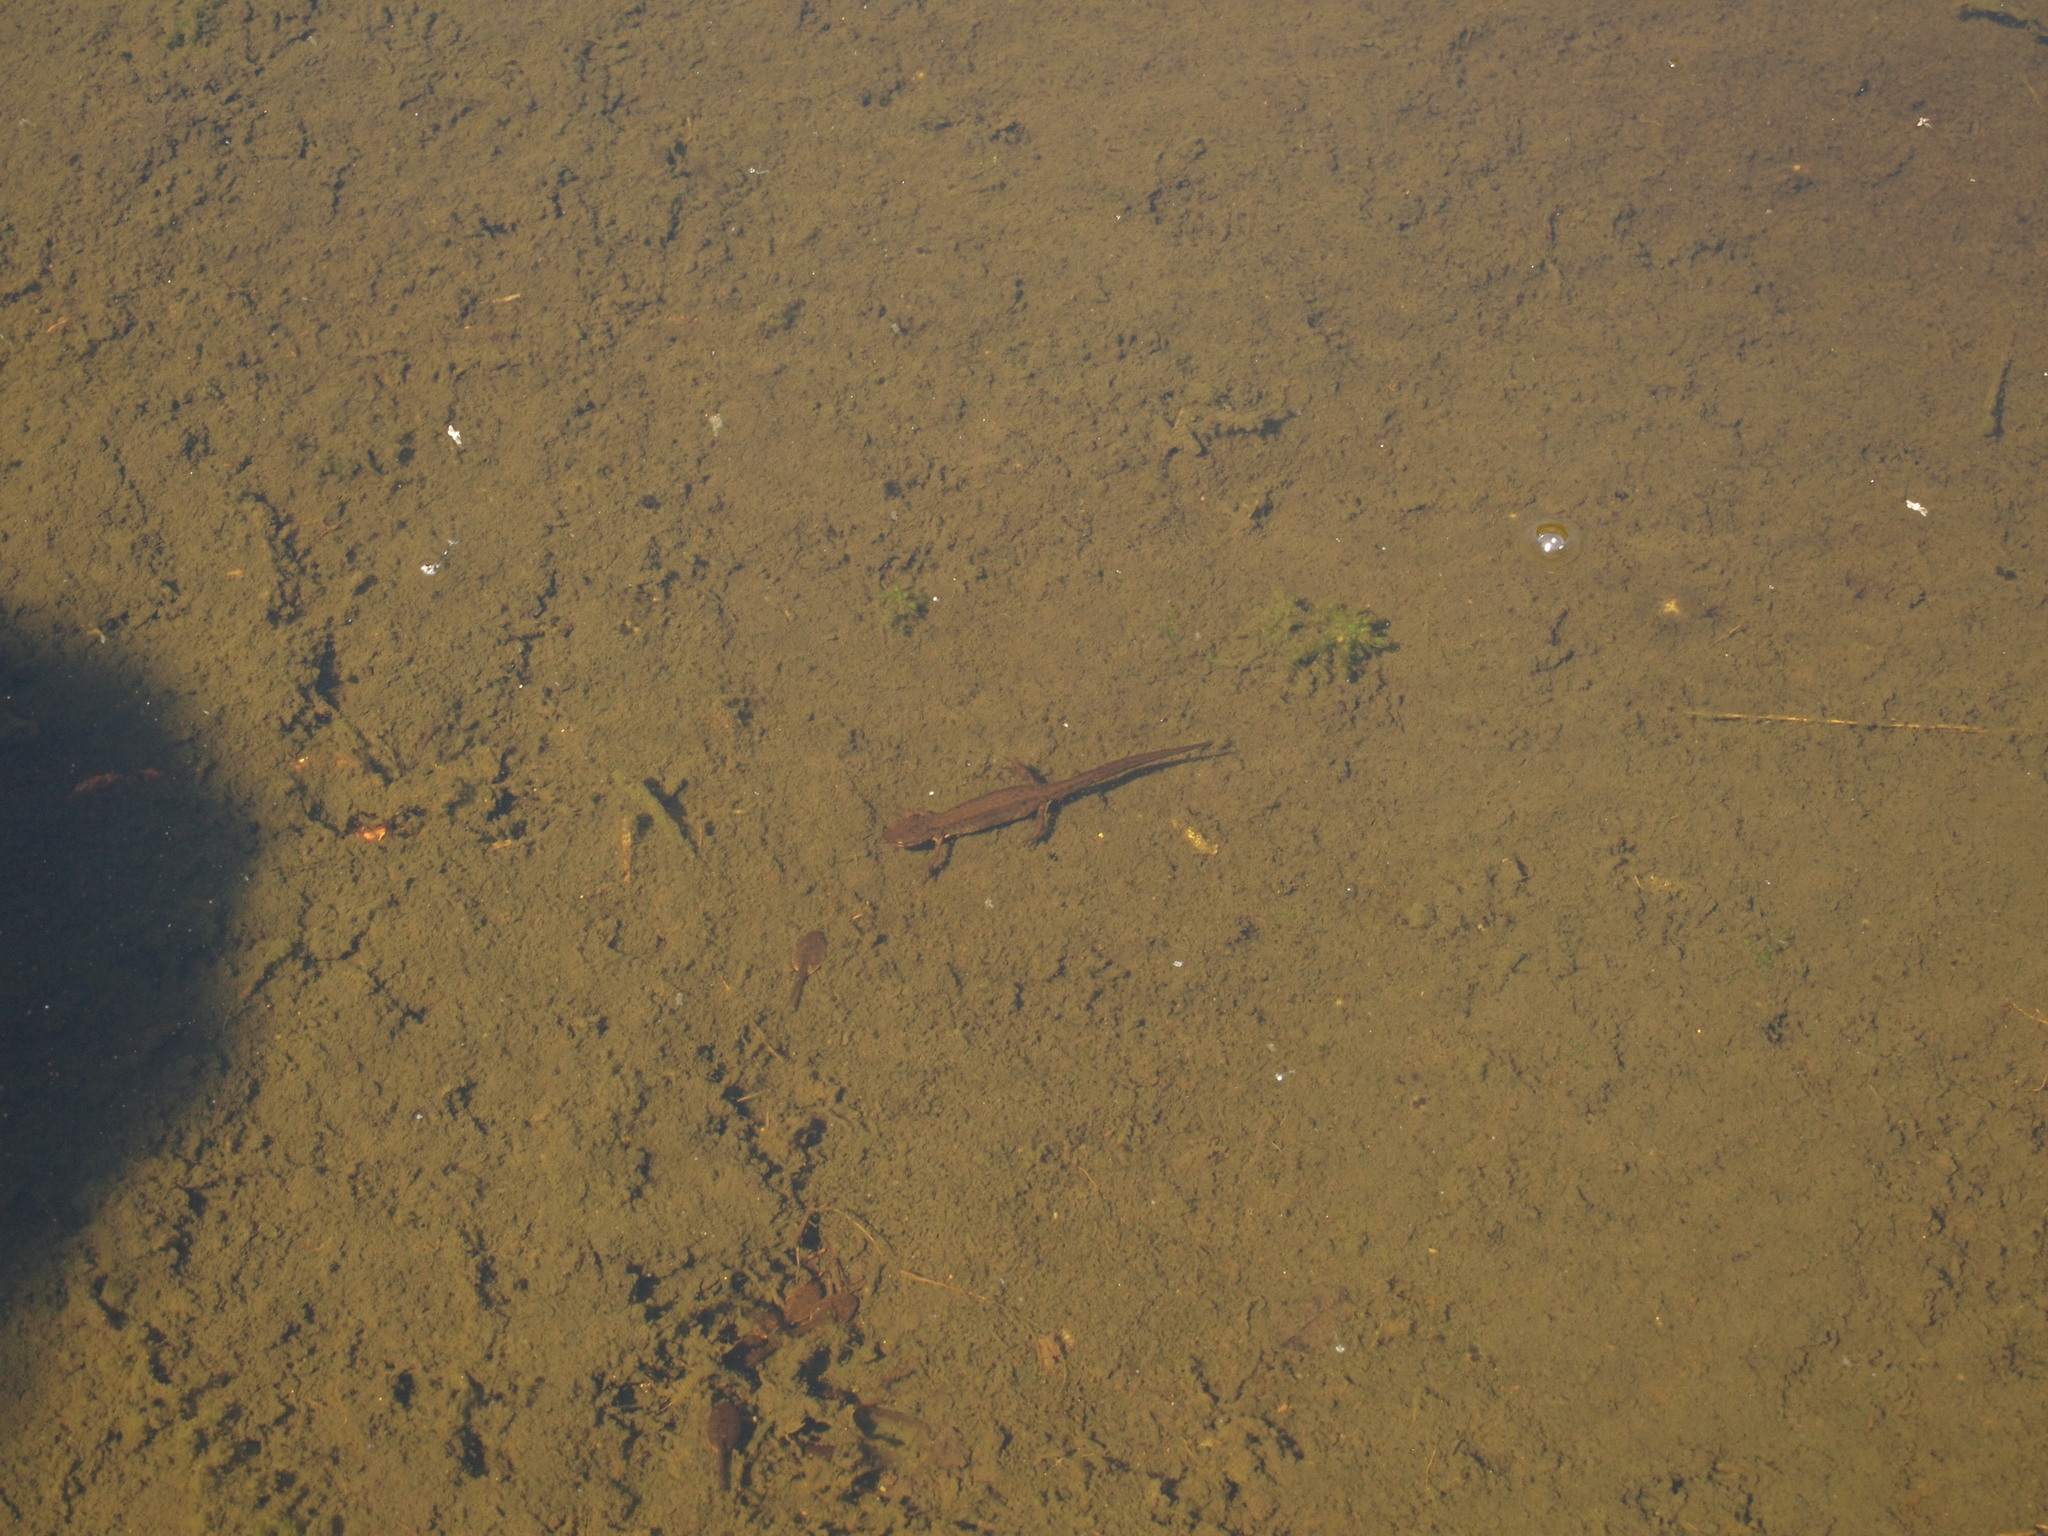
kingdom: Animalia
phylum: Chordata
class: Amphibia
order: Caudata
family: Salamandridae
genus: Lissotriton
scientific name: Lissotriton vulgaris
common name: Smooth newt
